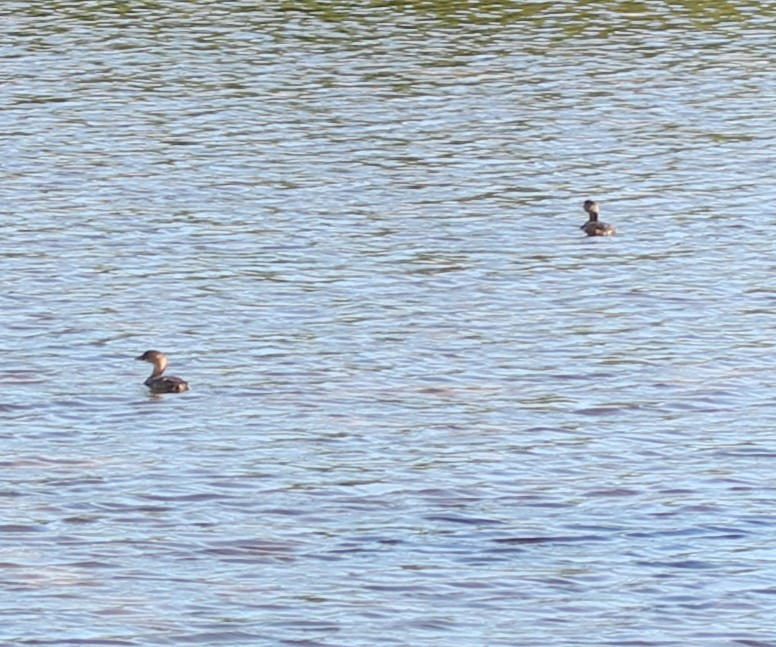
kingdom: Animalia
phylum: Chordata
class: Aves
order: Podicipediformes
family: Podicipedidae
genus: Podilymbus
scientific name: Podilymbus podiceps
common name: Pied-billed grebe
